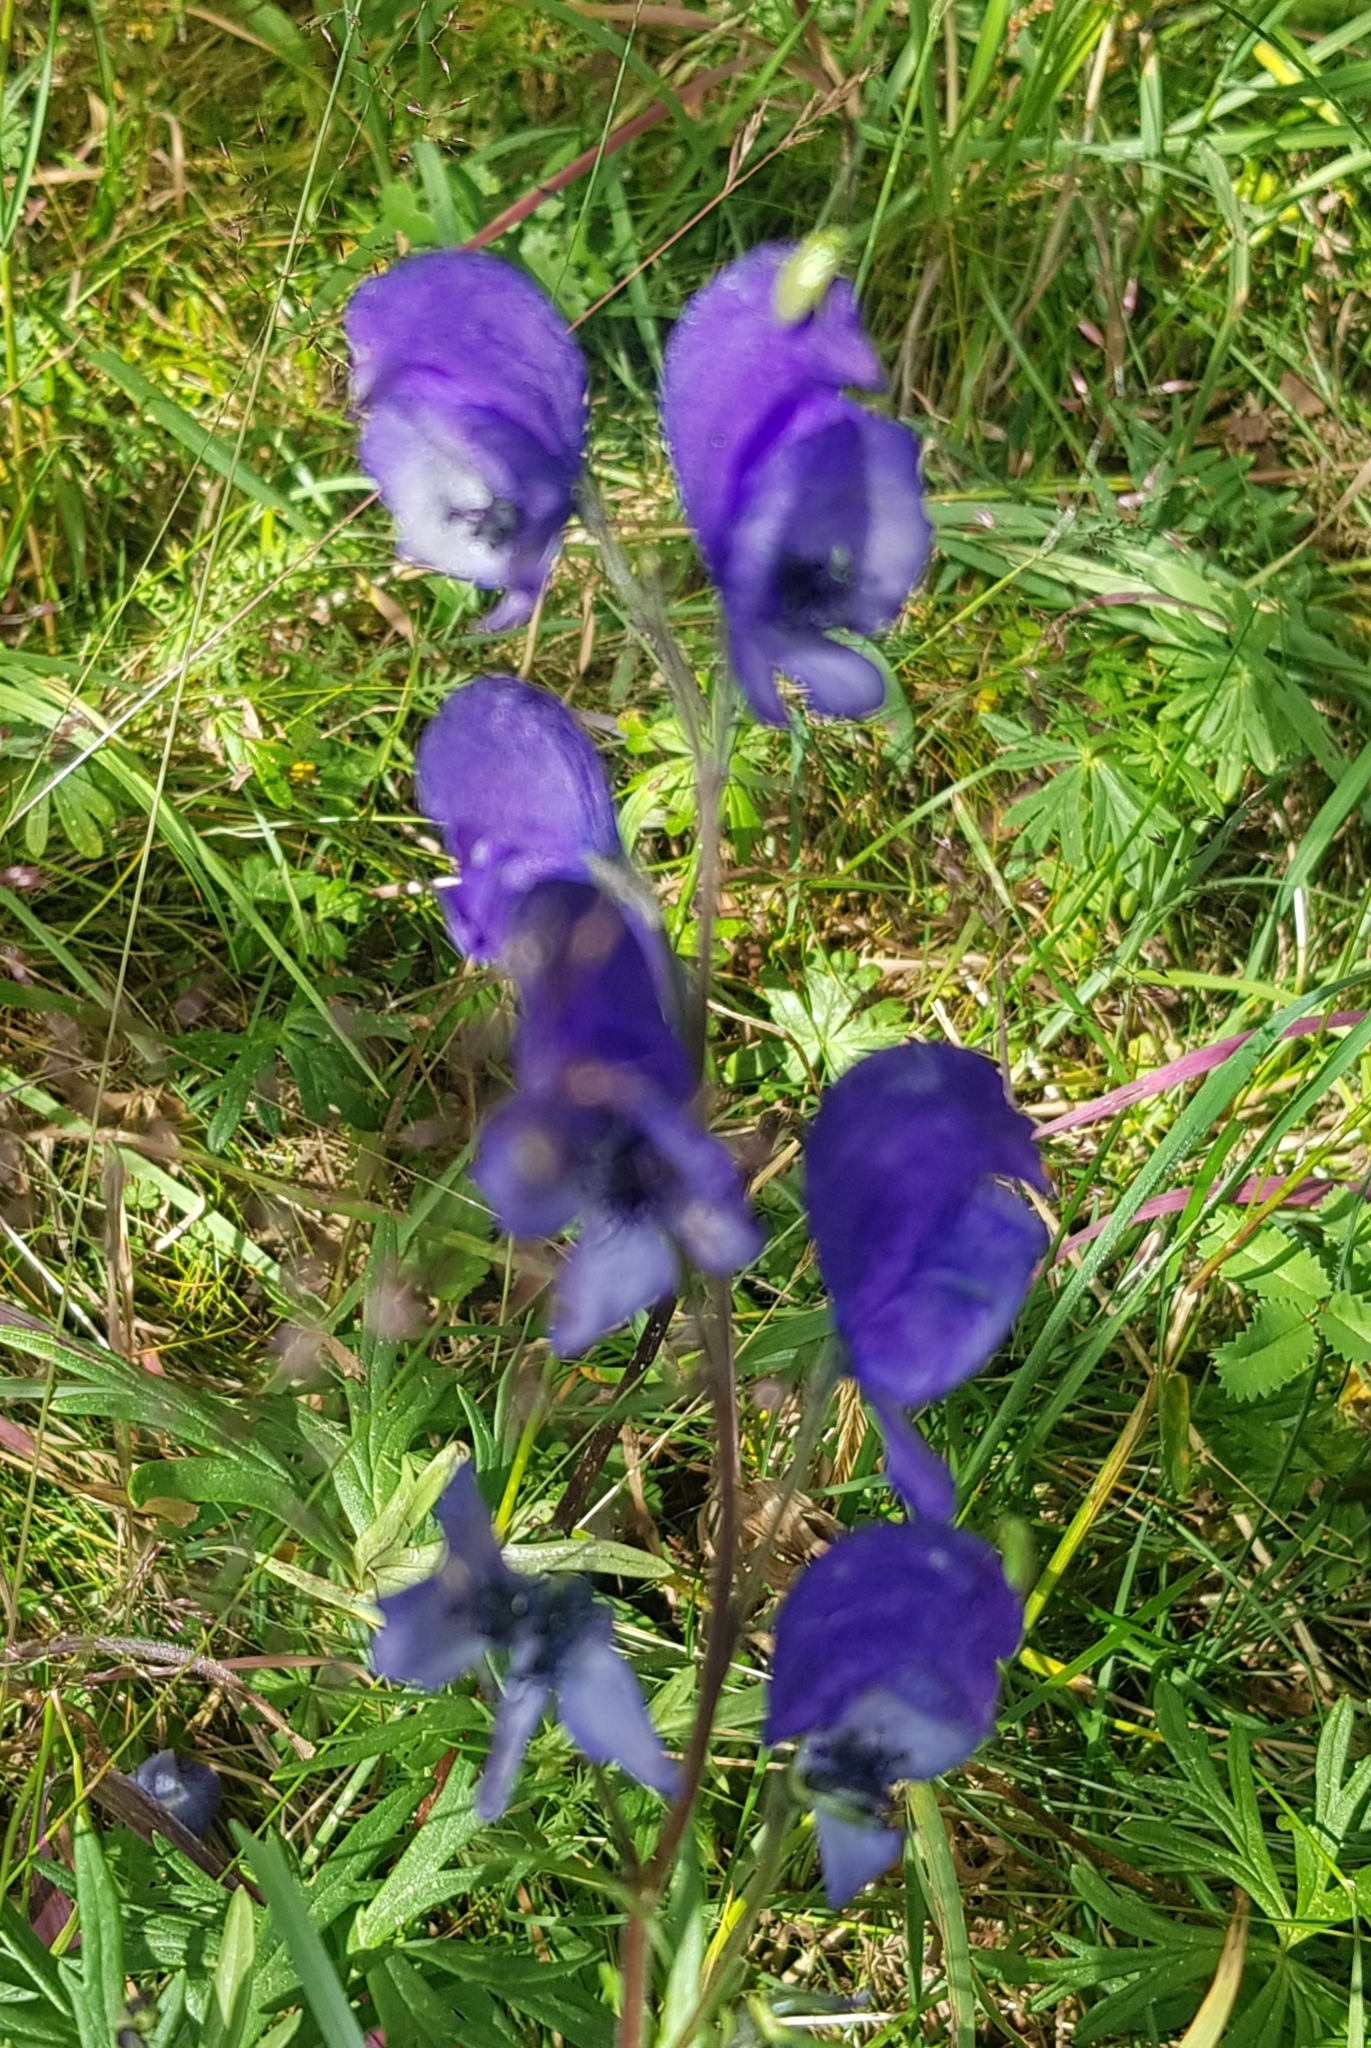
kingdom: Plantae
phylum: Tracheophyta
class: Magnoliopsida
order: Ranunculales
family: Ranunculaceae
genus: Aconitum
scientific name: Aconitum baicalense
